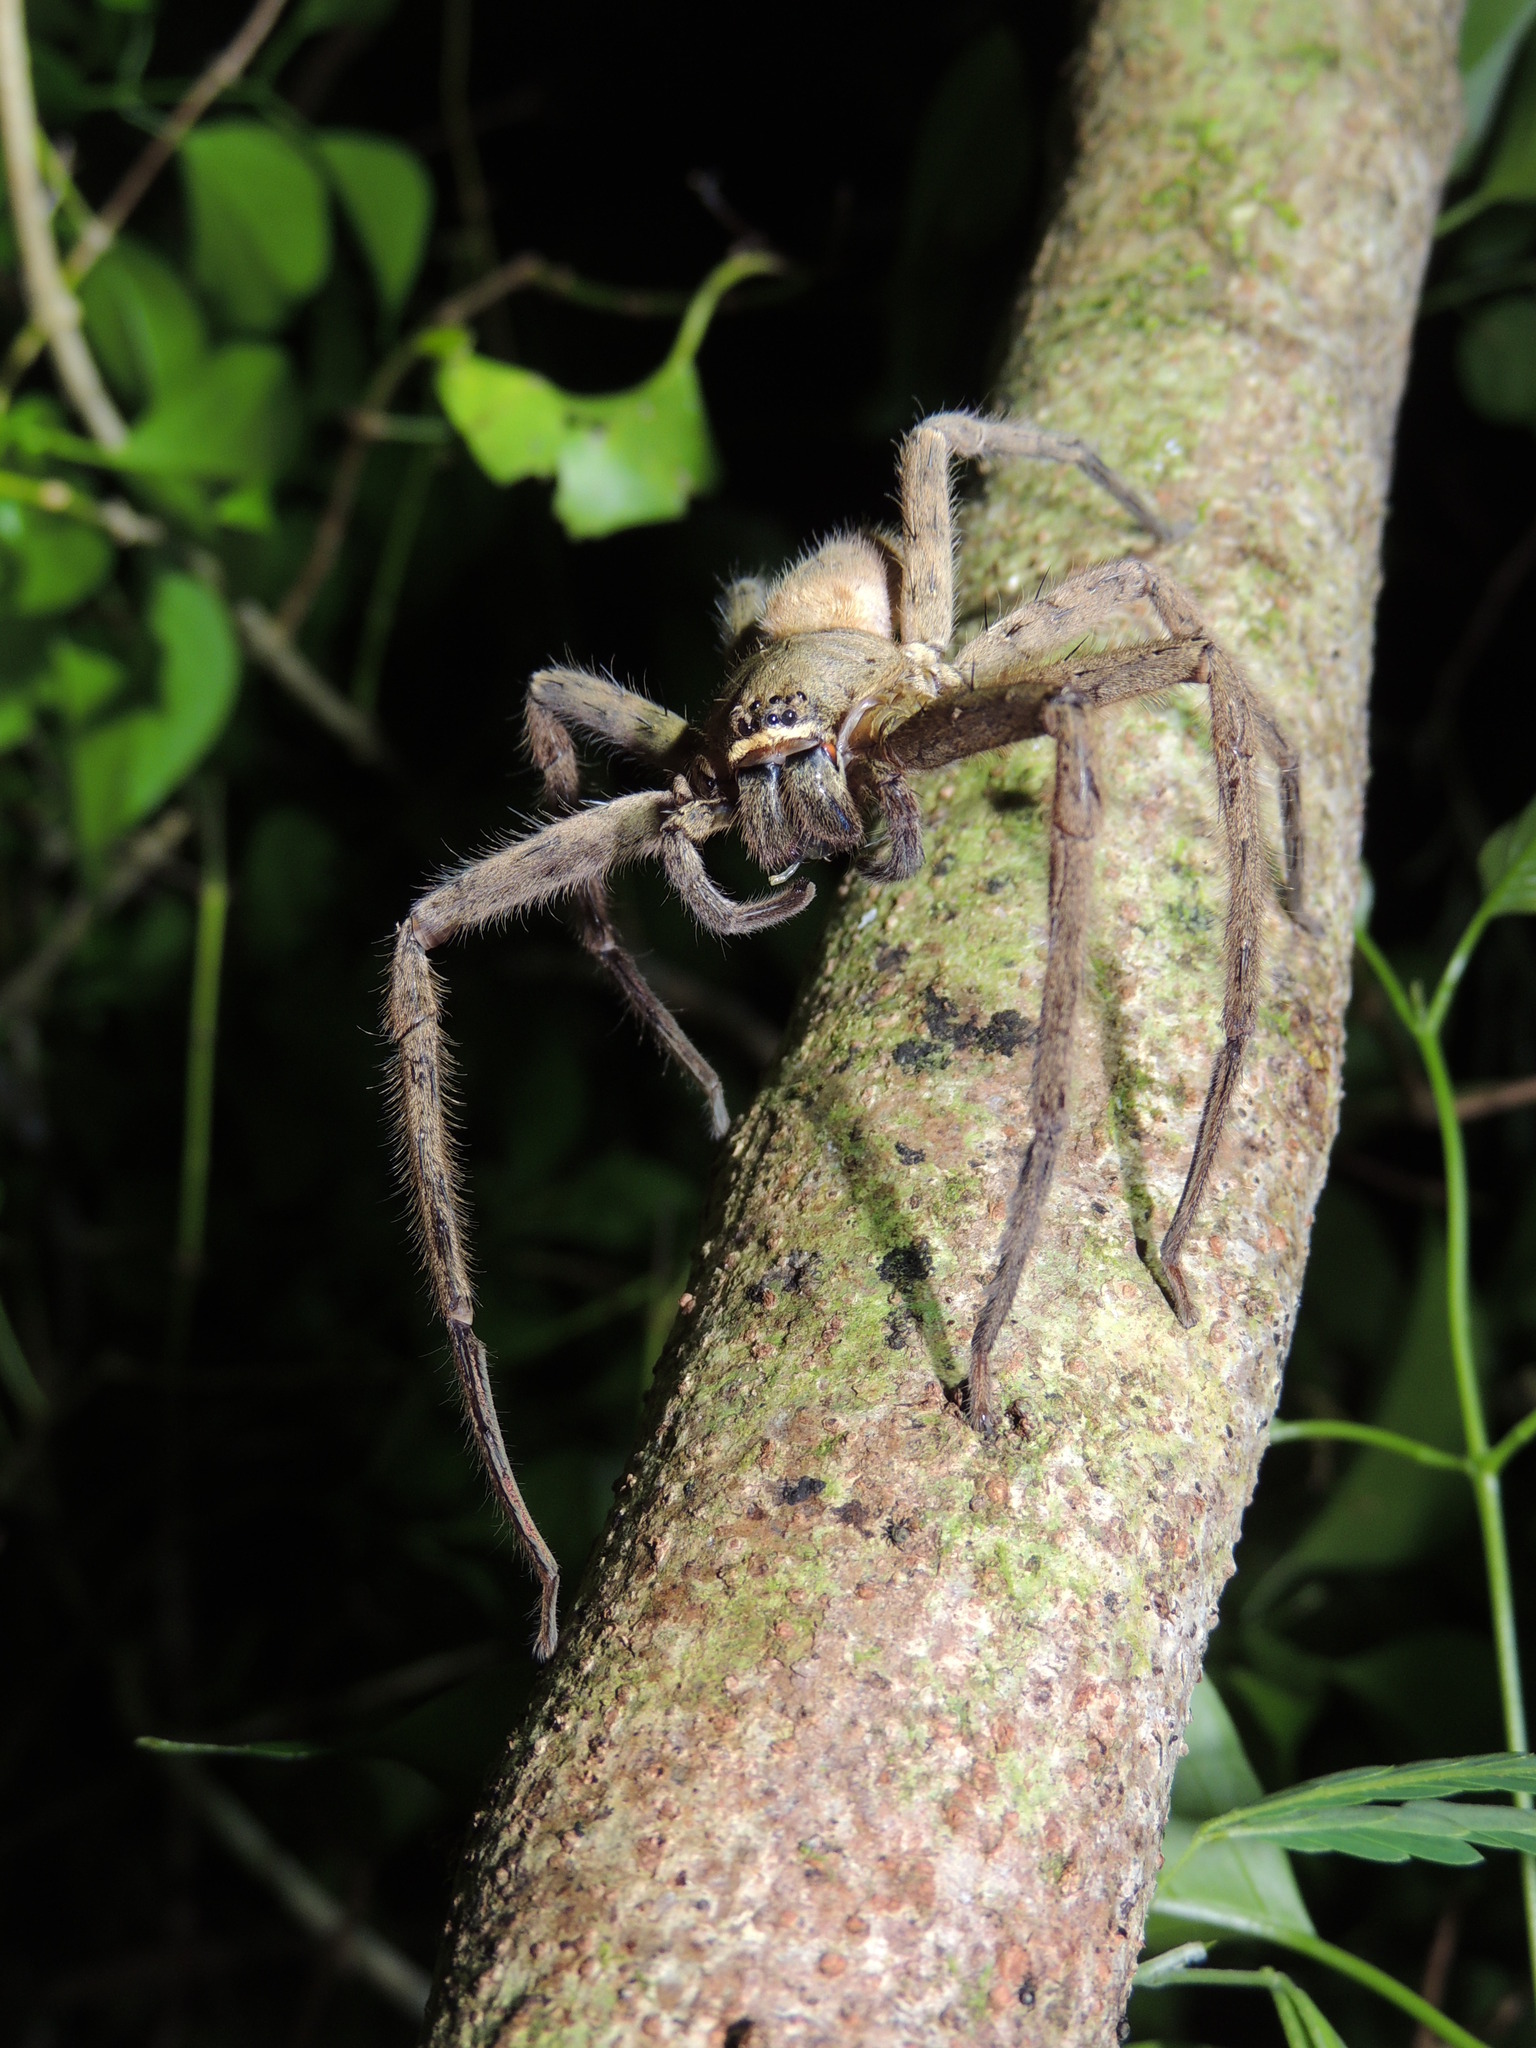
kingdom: Animalia
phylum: Arthropoda
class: Arachnida
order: Araneae
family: Sparassidae
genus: Heteropoda
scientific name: Heteropoda venatoria
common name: Huntsman spider
